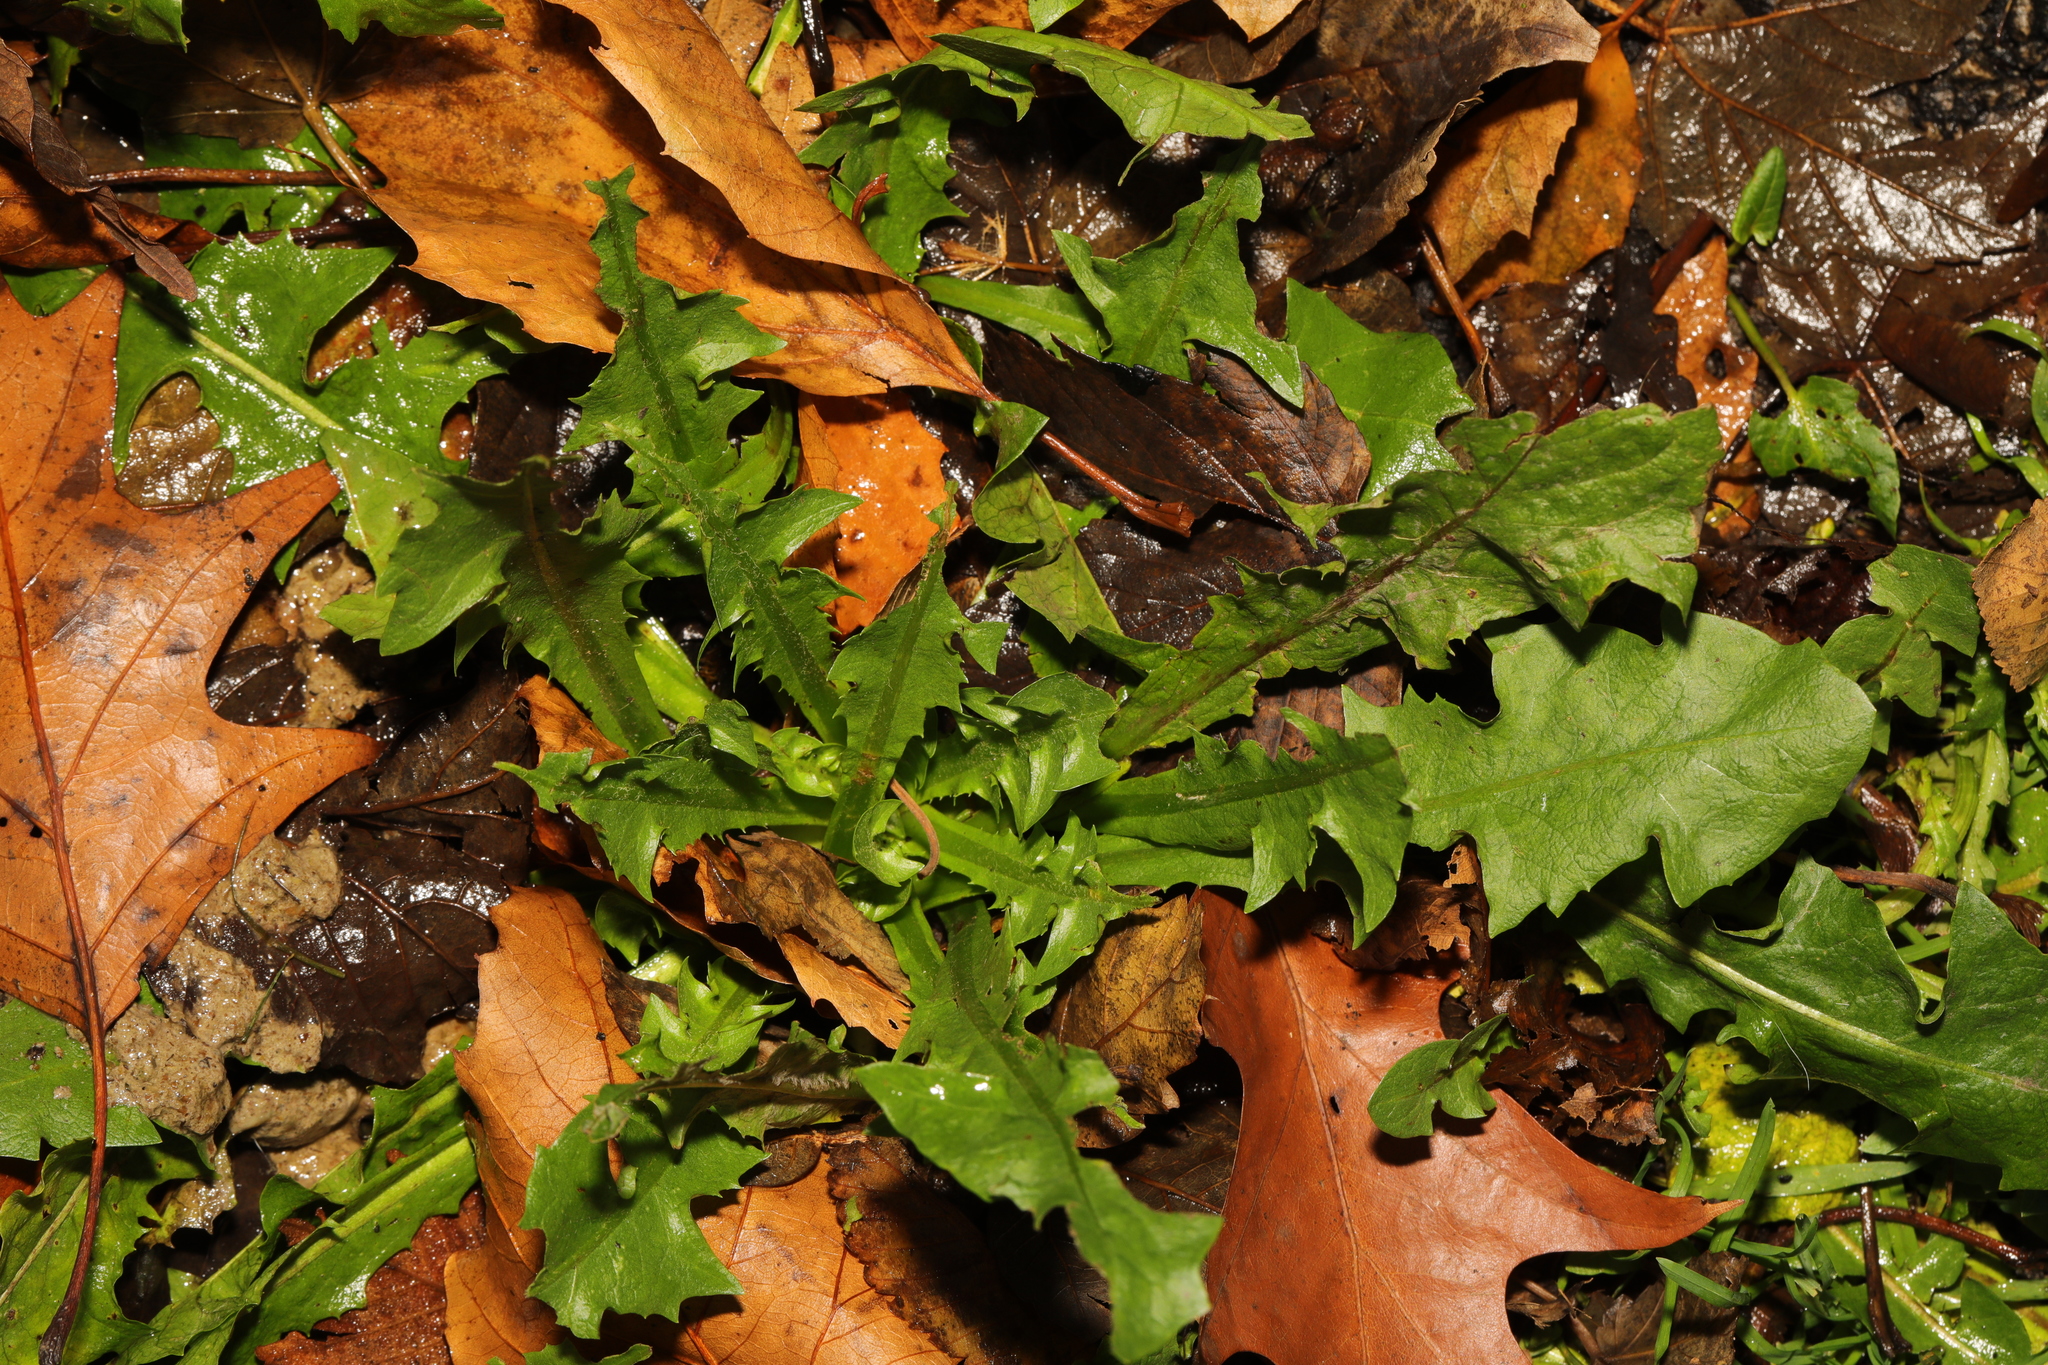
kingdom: Plantae
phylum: Tracheophyta
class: Magnoliopsida
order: Asterales
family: Asteraceae
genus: Taraxacum
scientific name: Taraxacum officinale
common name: Common dandelion
